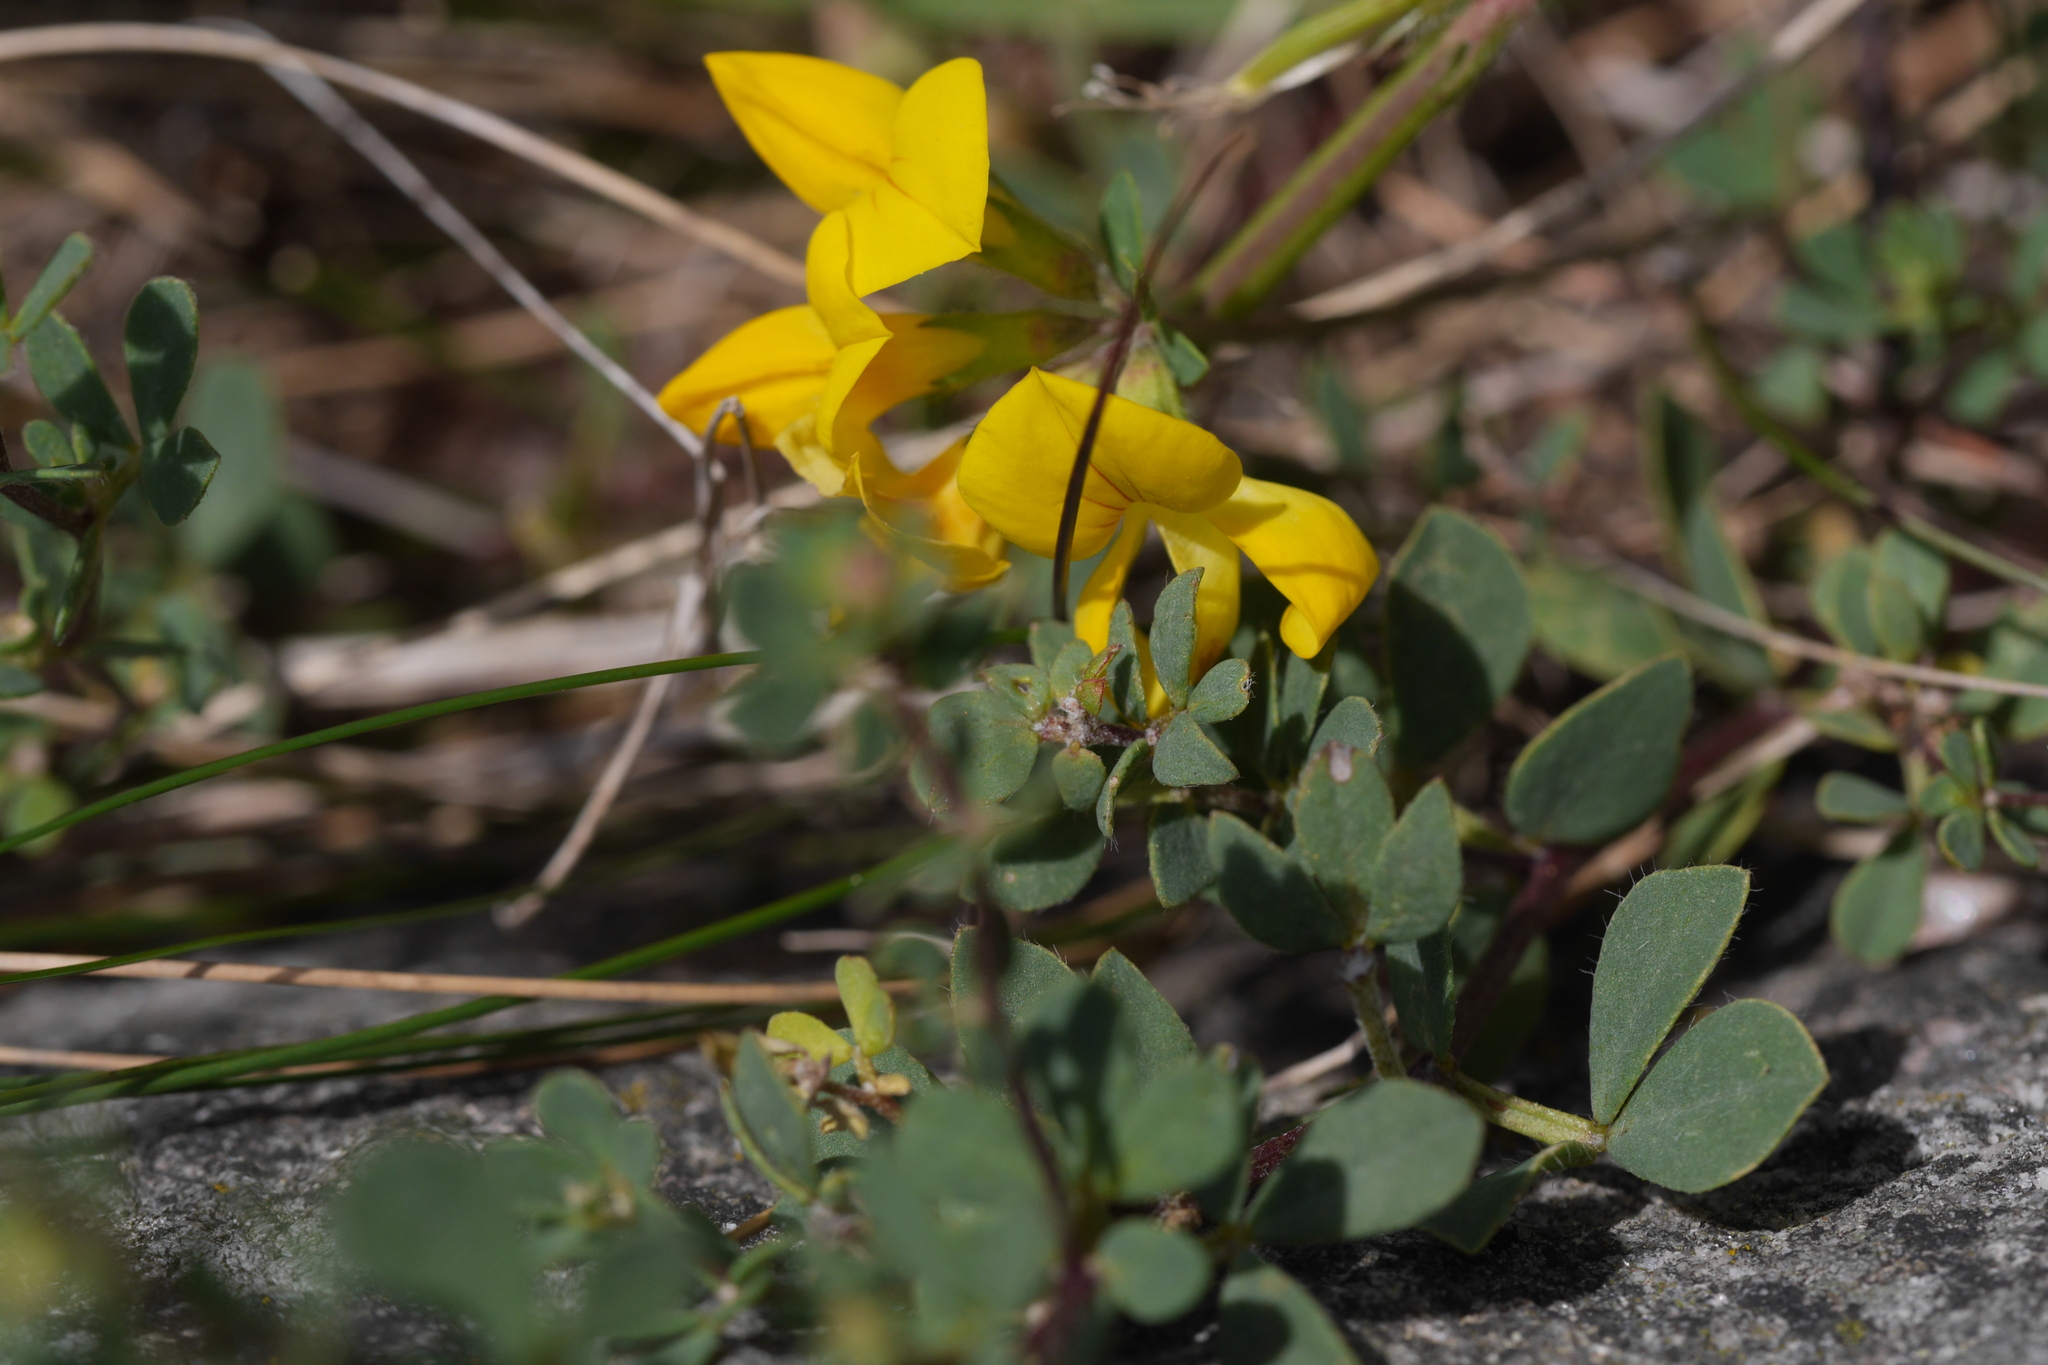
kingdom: Plantae
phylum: Tracheophyta
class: Magnoliopsida
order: Fabales
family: Fabaceae
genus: Lotus
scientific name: Lotus corniculatus
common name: Common bird's-foot-trefoil
